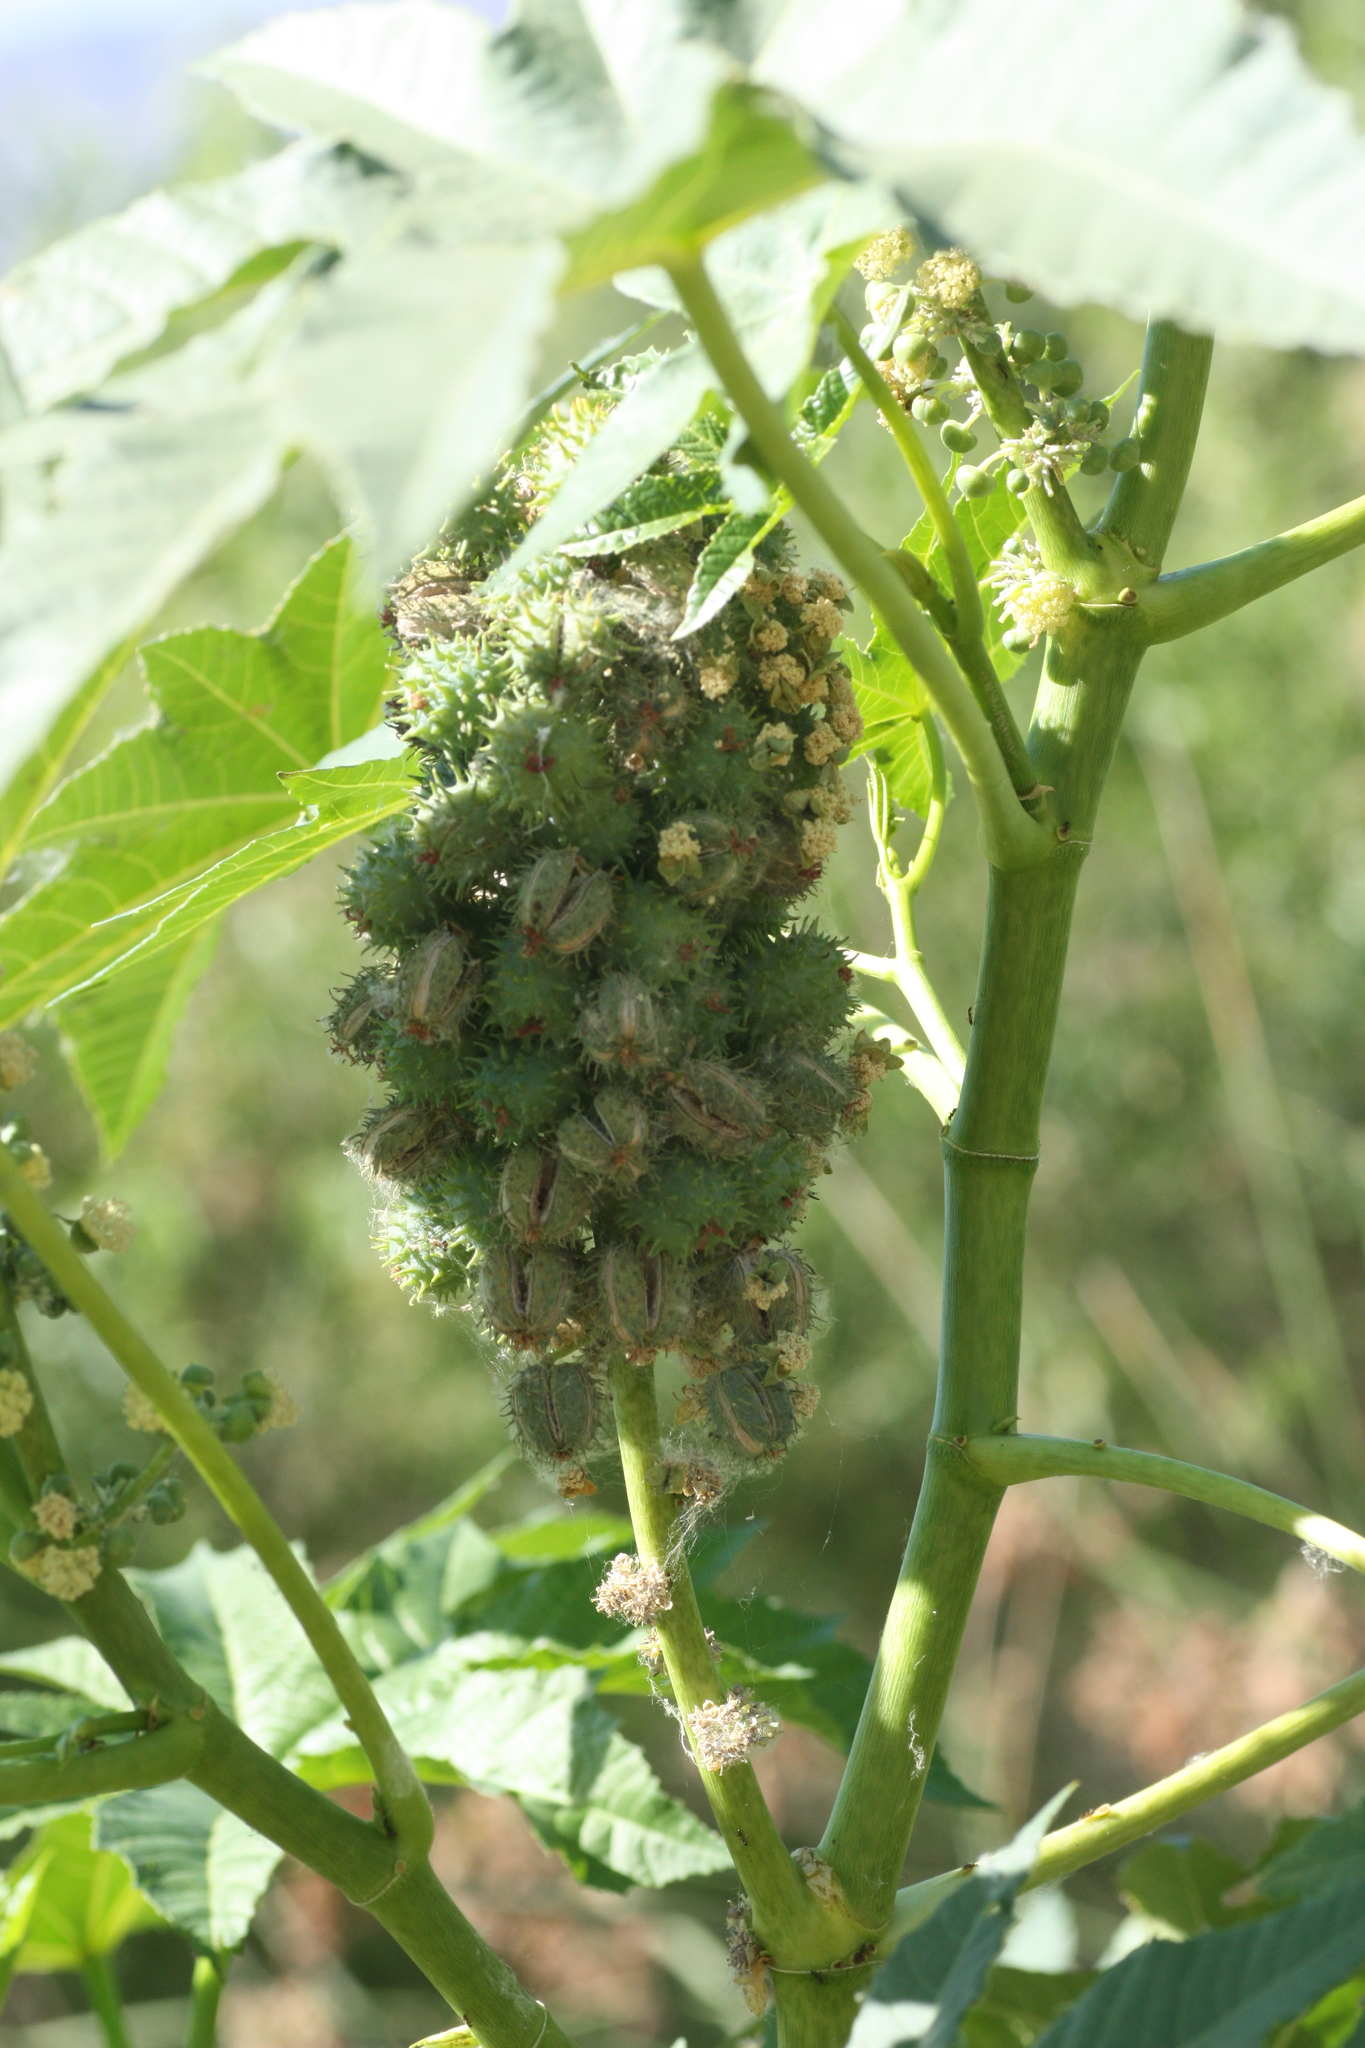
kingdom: Plantae
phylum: Tracheophyta
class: Magnoliopsida
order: Malpighiales
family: Euphorbiaceae
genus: Ricinus
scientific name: Ricinus communis
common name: Castor-oil-plant
